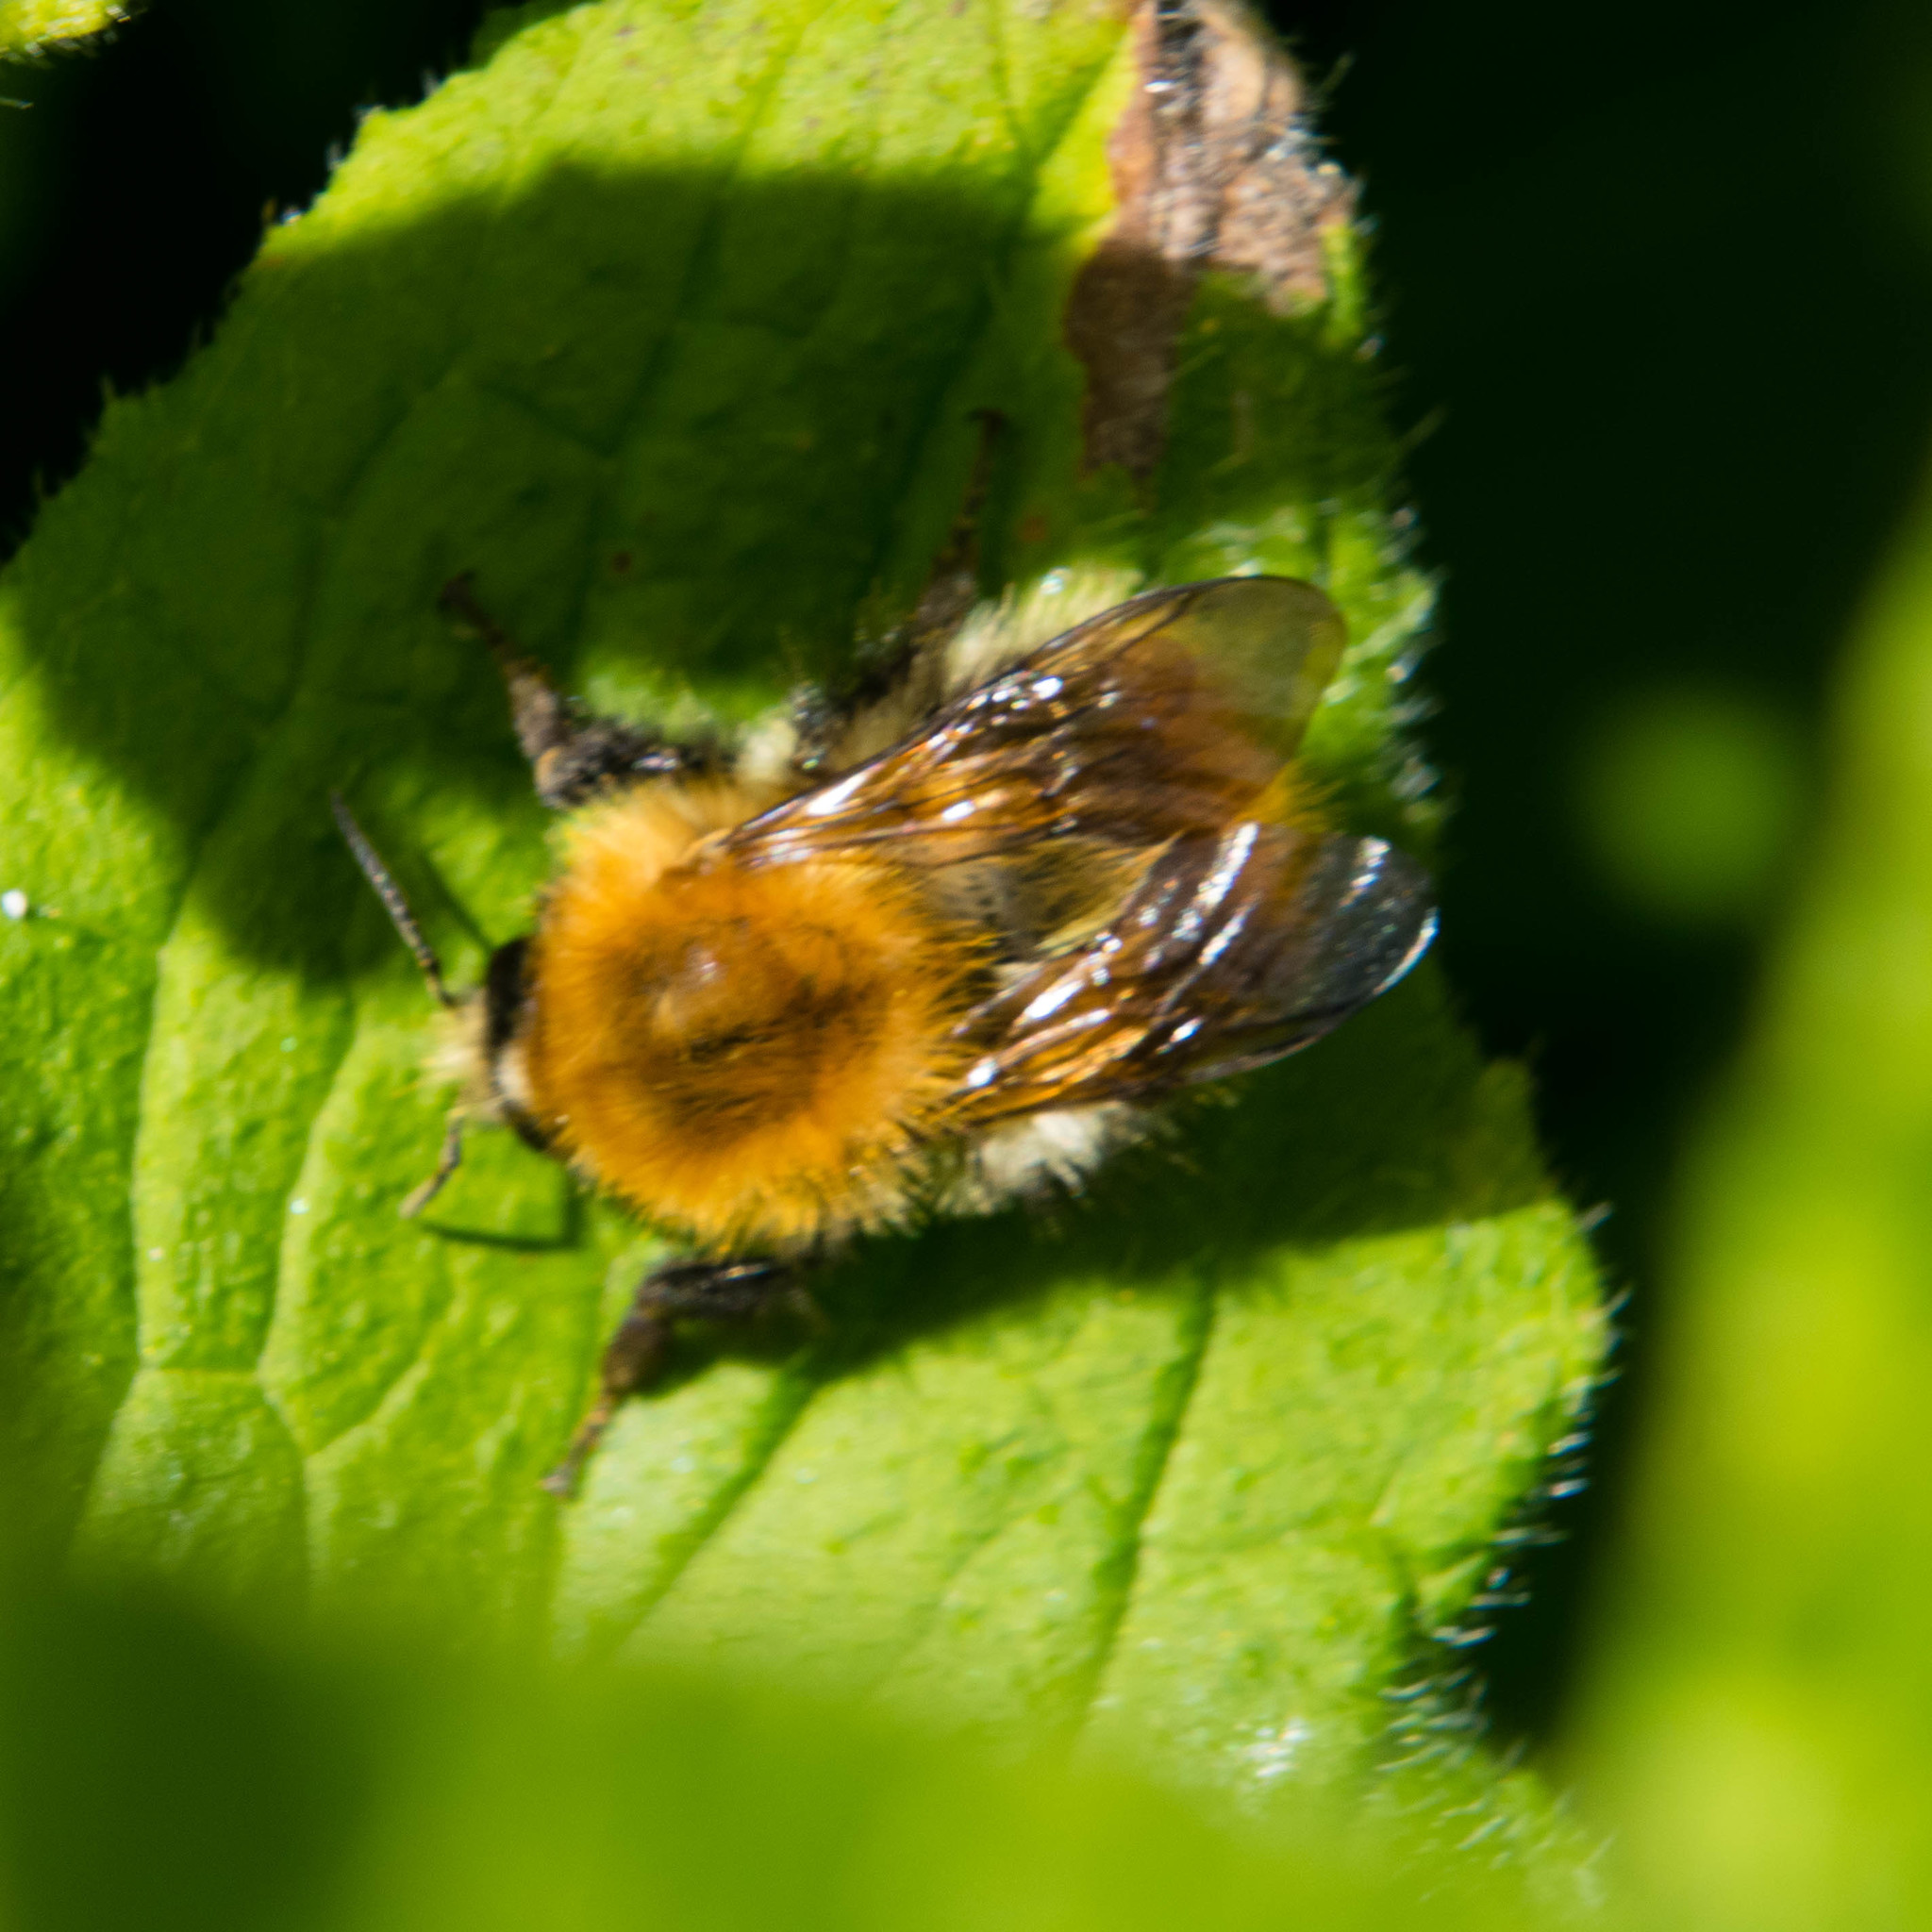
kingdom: Animalia
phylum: Arthropoda
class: Insecta
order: Hymenoptera
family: Apidae
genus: Bombus
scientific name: Bombus pascuorum
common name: Common carder bee
